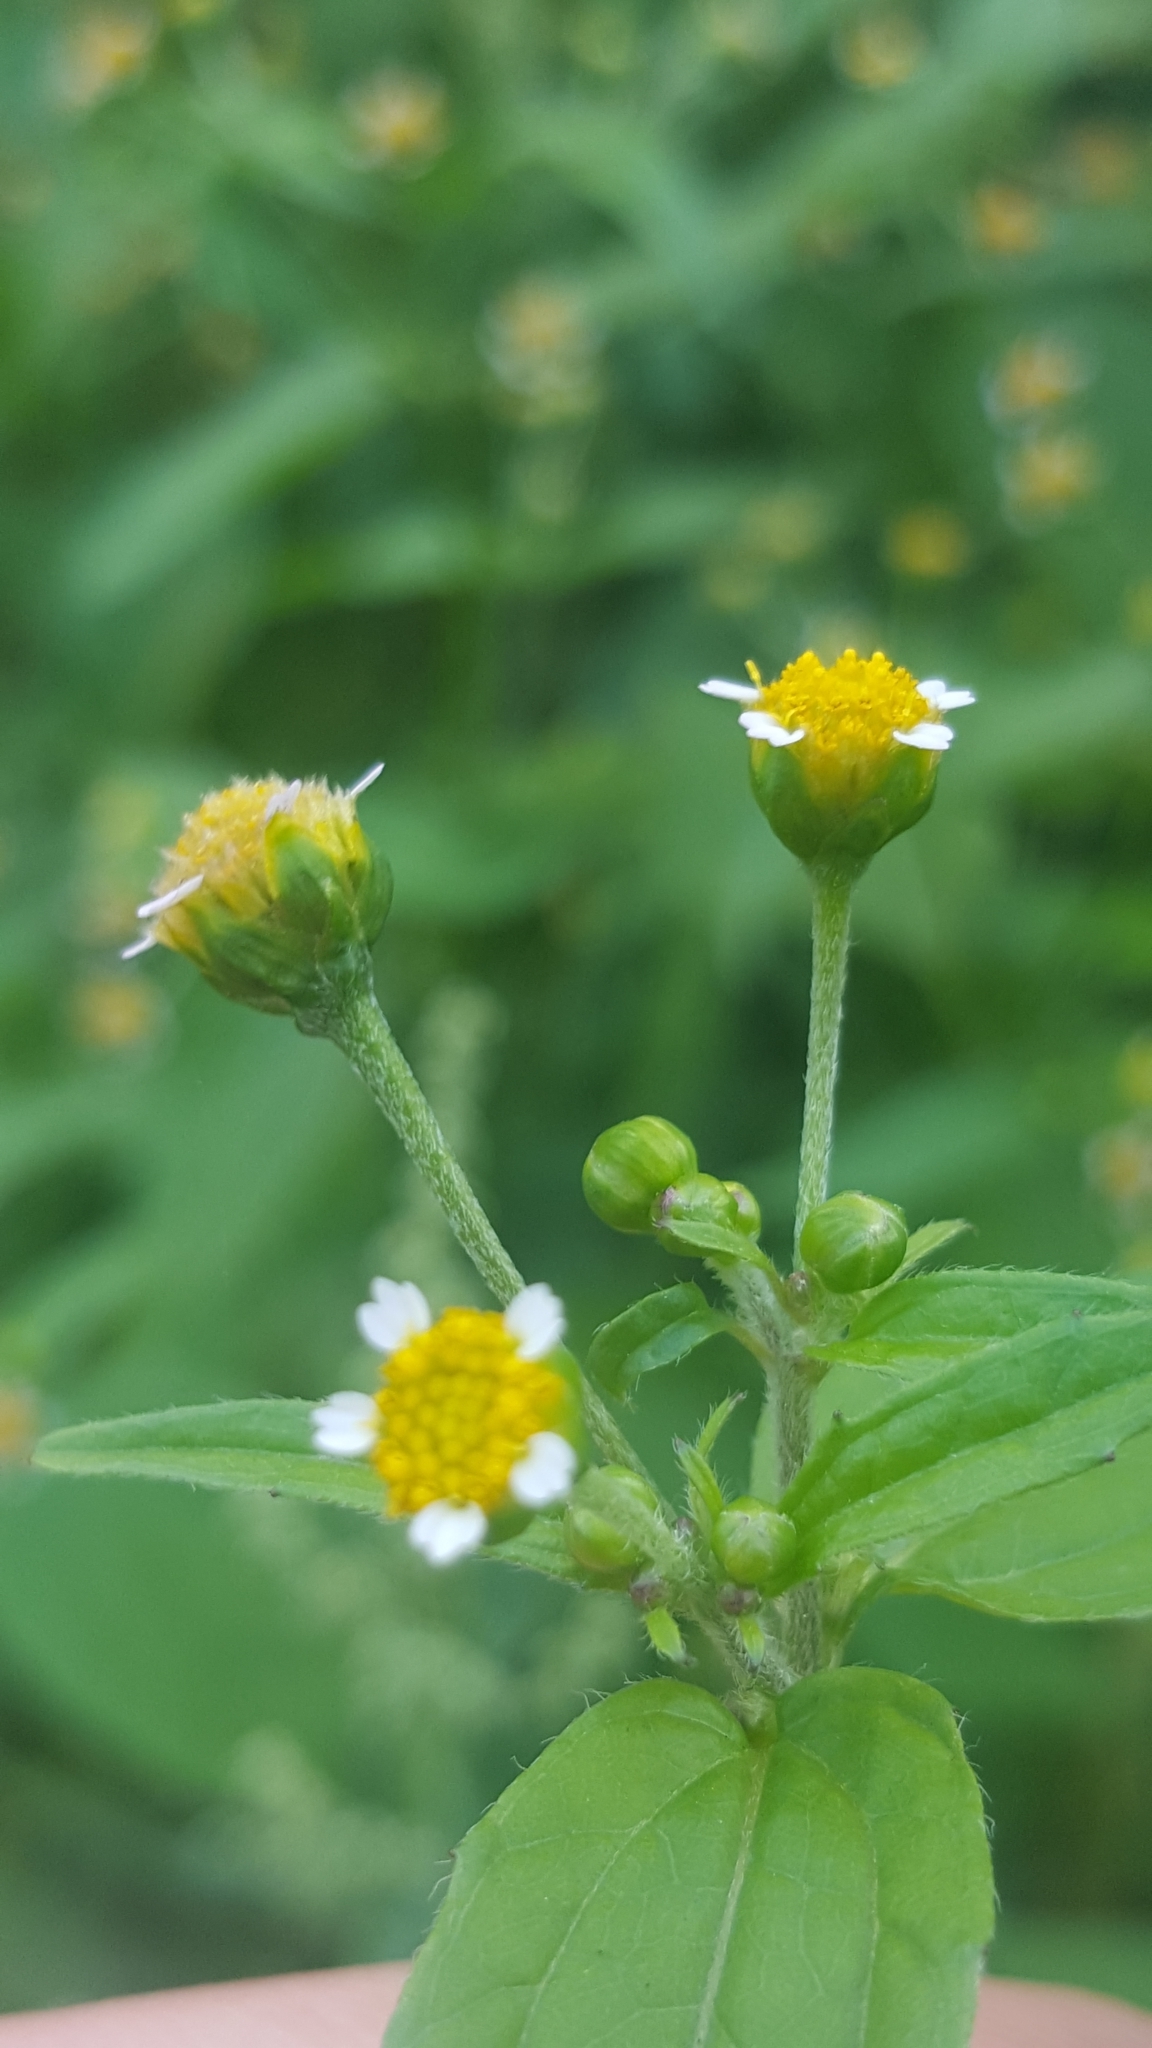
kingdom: Plantae
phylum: Tracheophyta
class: Magnoliopsida
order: Asterales
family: Asteraceae
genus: Galinsoga
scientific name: Galinsoga parviflora
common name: Gallant soldier
